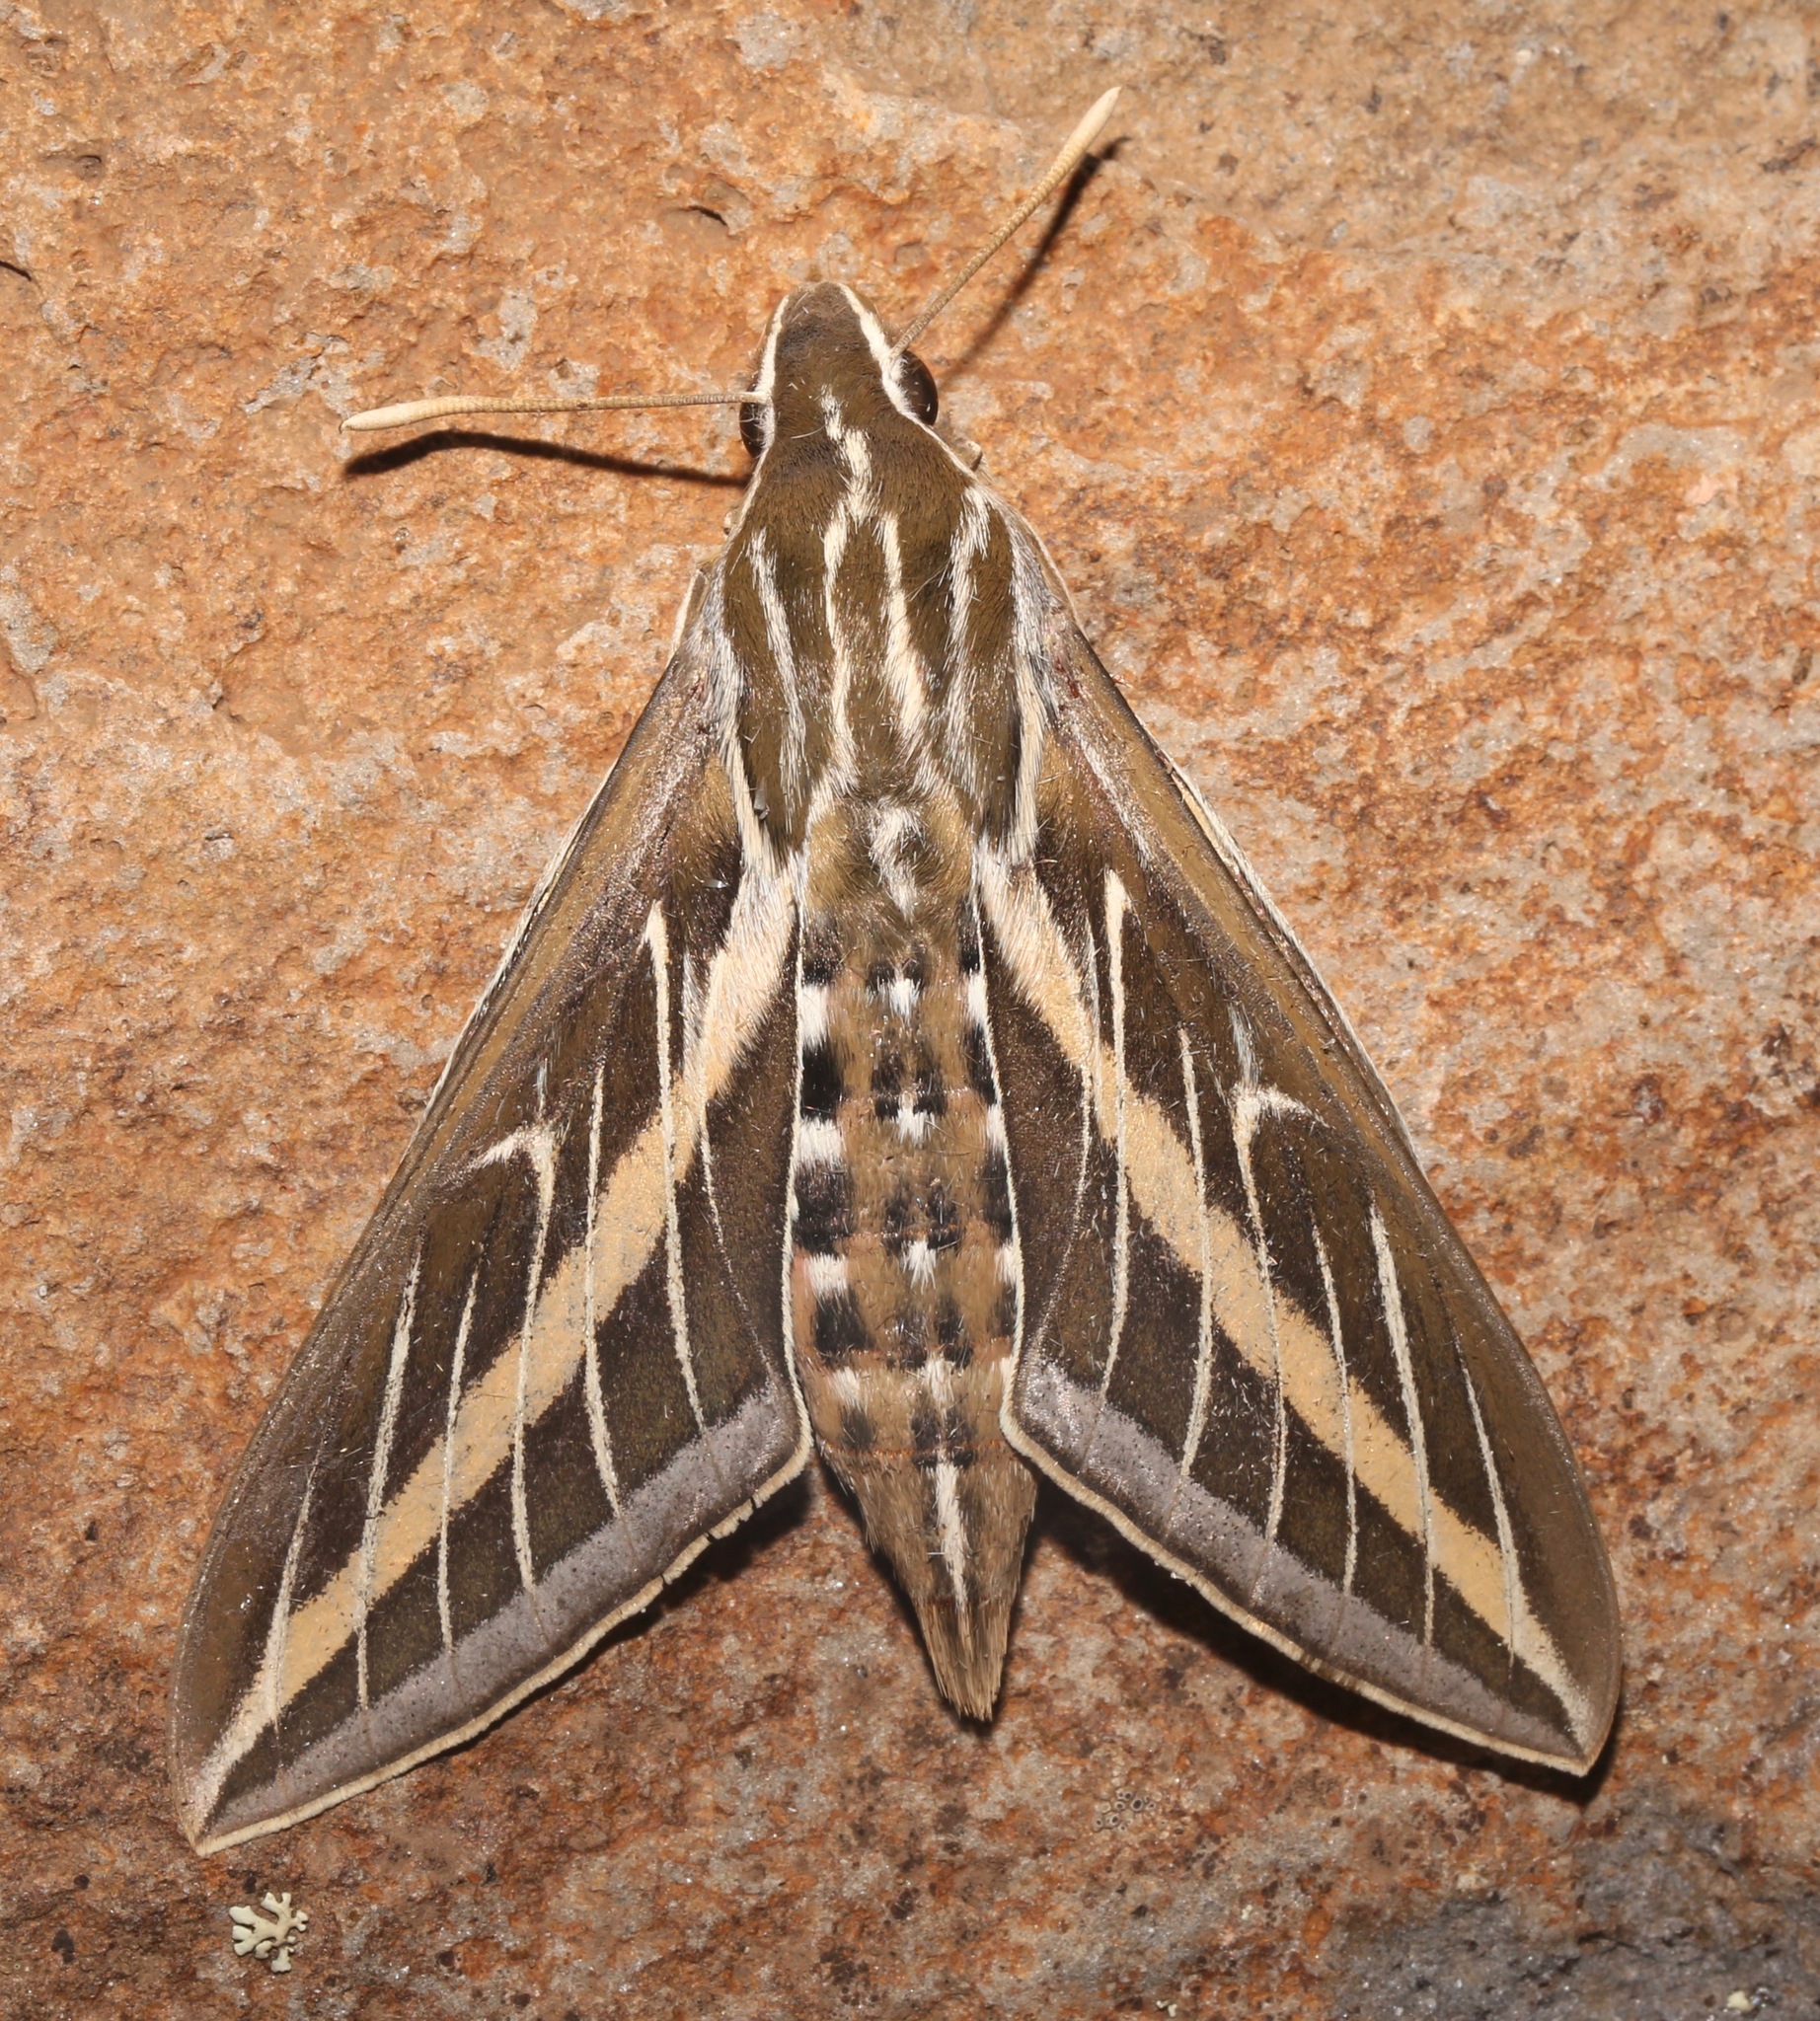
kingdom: Animalia
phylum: Arthropoda
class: Insecta
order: Lepidoptera
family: Sphingidae
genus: Hyles
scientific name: Hyles lineata
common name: White-lined sphinx
